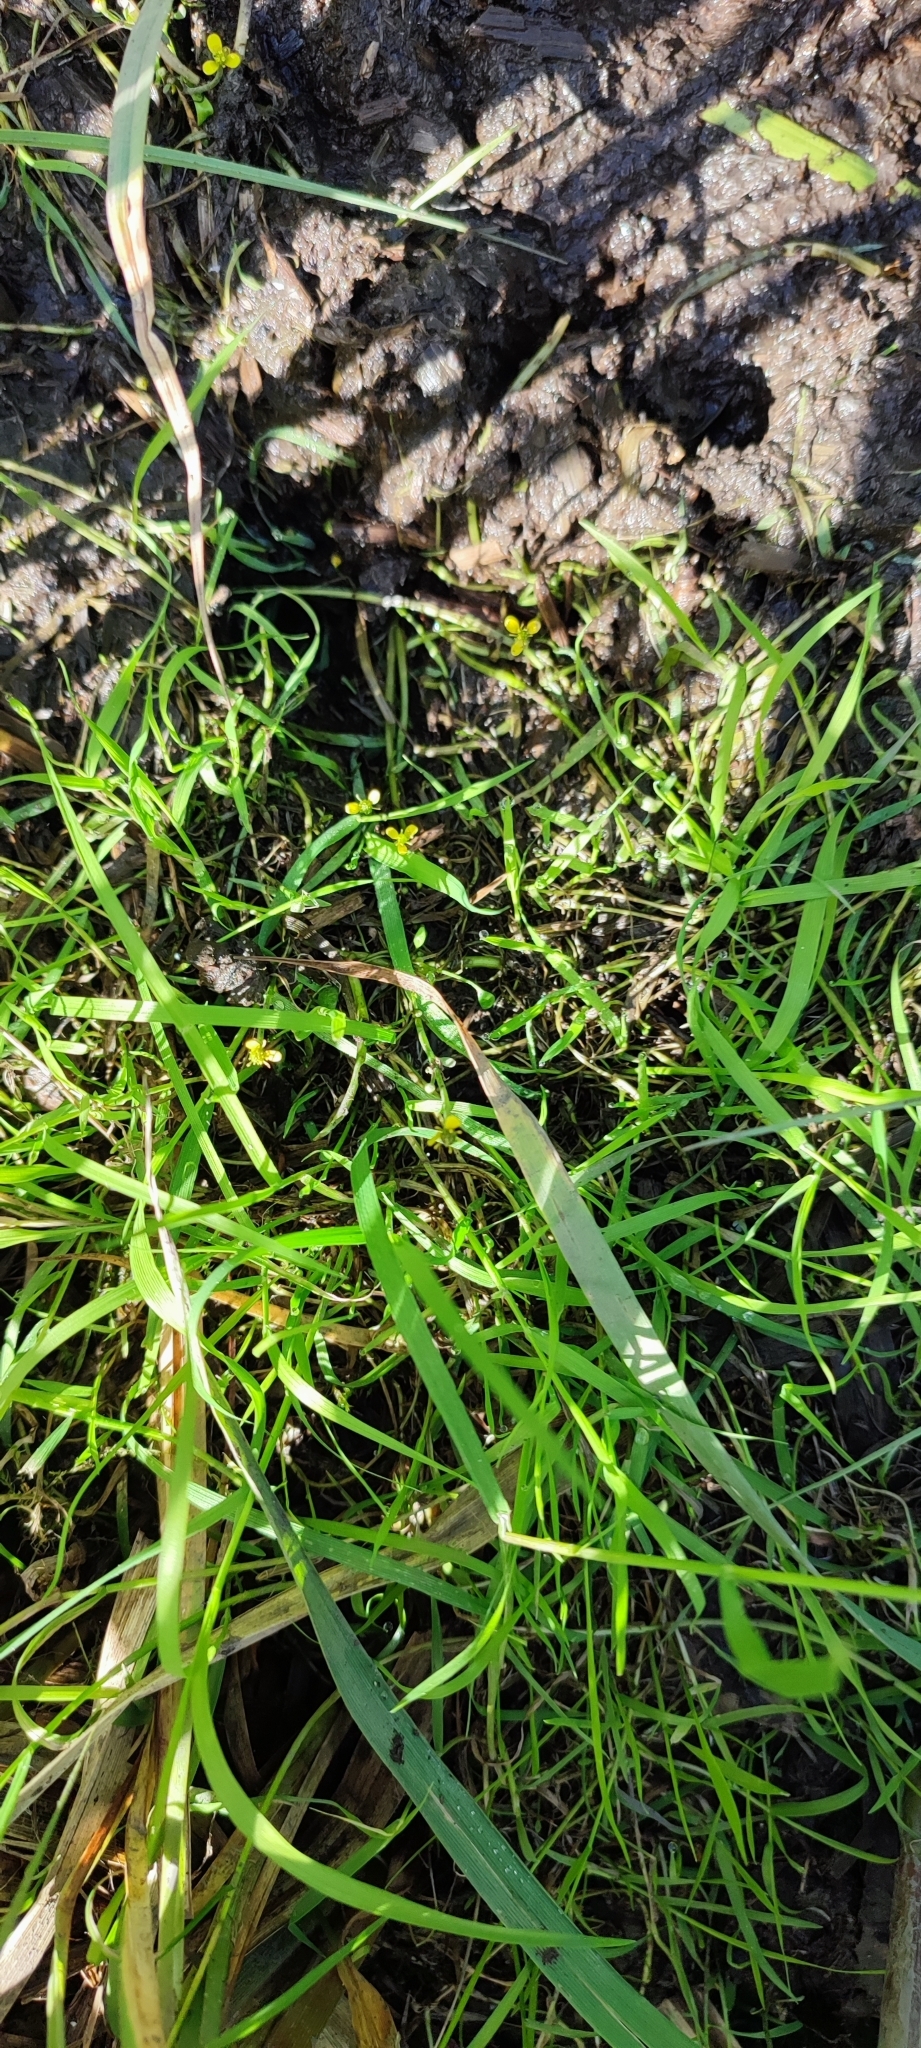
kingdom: Plantae
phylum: Tracheophyta
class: Magnoliopsida
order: Ranunculales
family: Ranunculaceae
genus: Ranunculus
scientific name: Ranunculus polyphyllus
